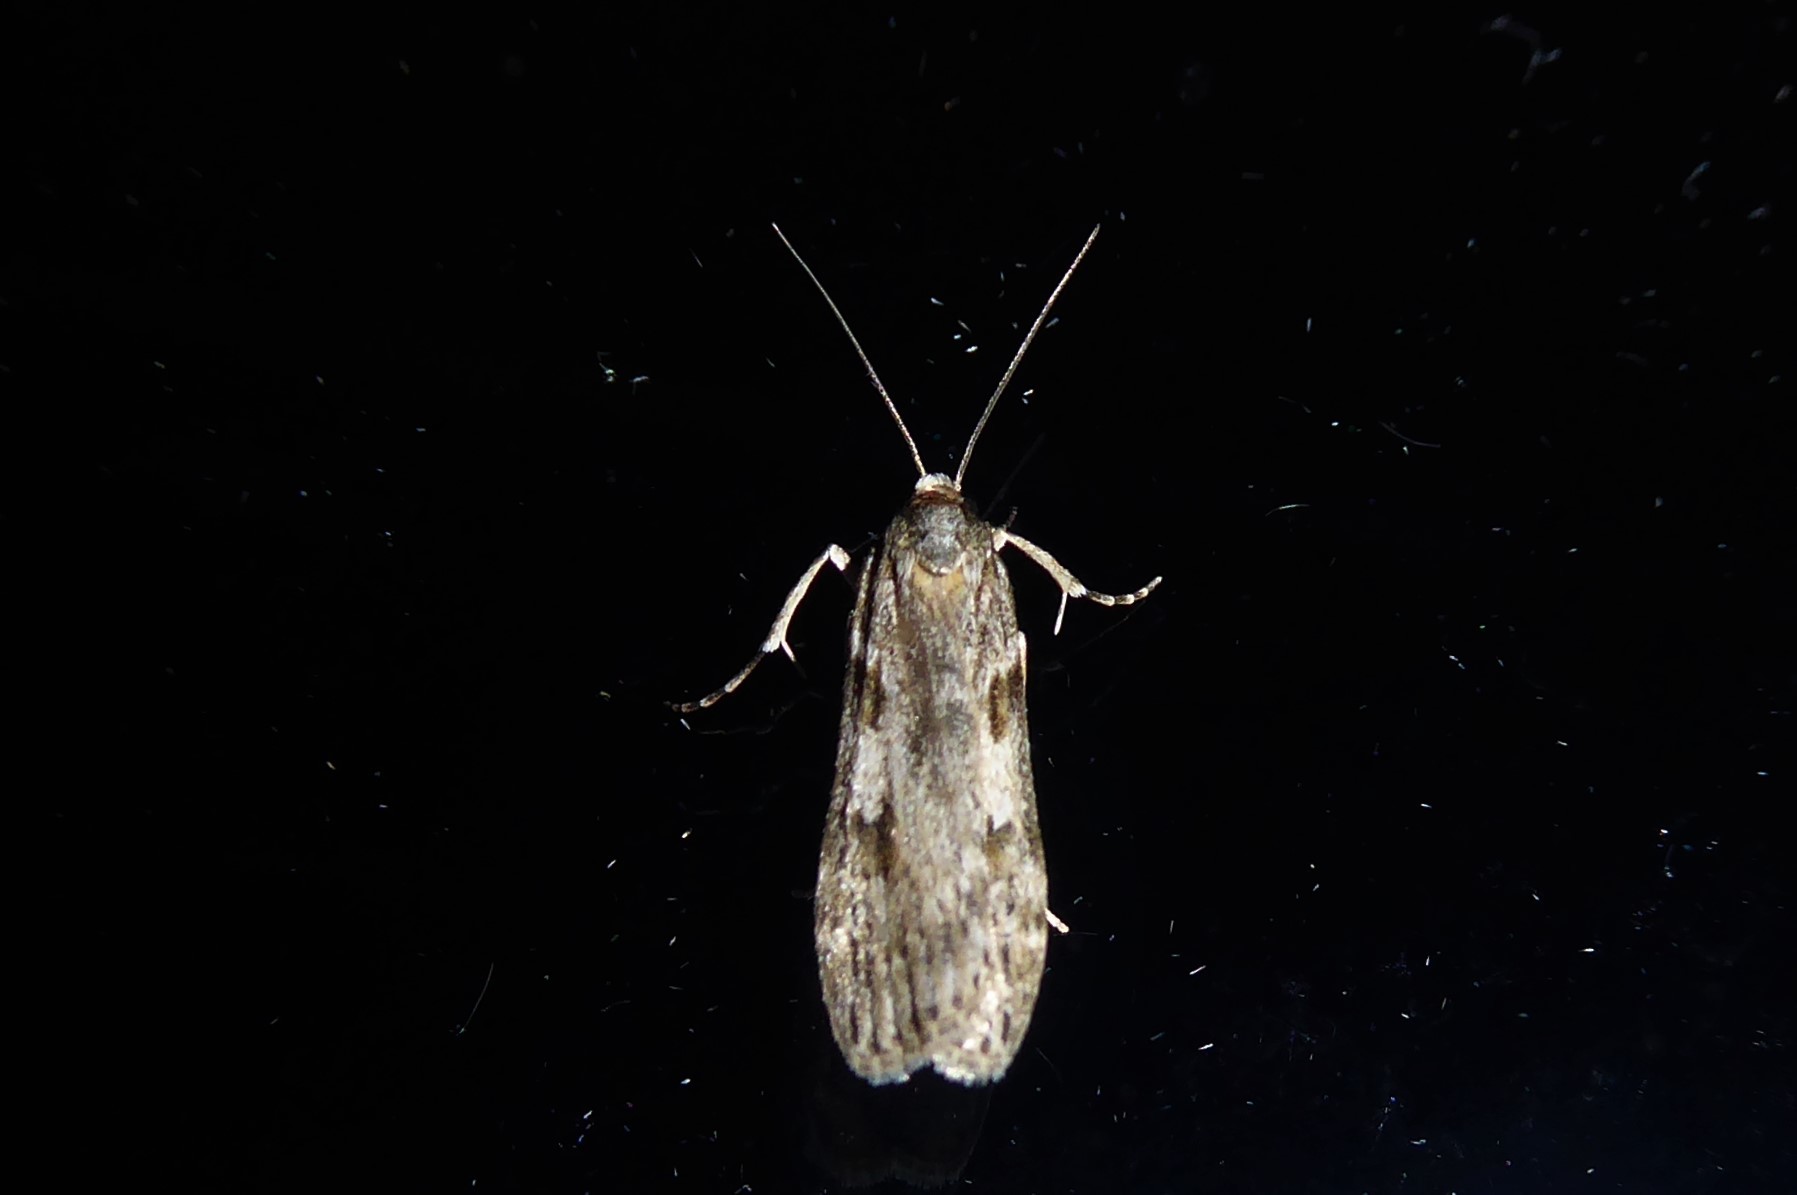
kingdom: Animalia
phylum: Arthropoda
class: Insecta
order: Lepidoptera
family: Crambidae
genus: Scoparia
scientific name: Scoparia halopis
